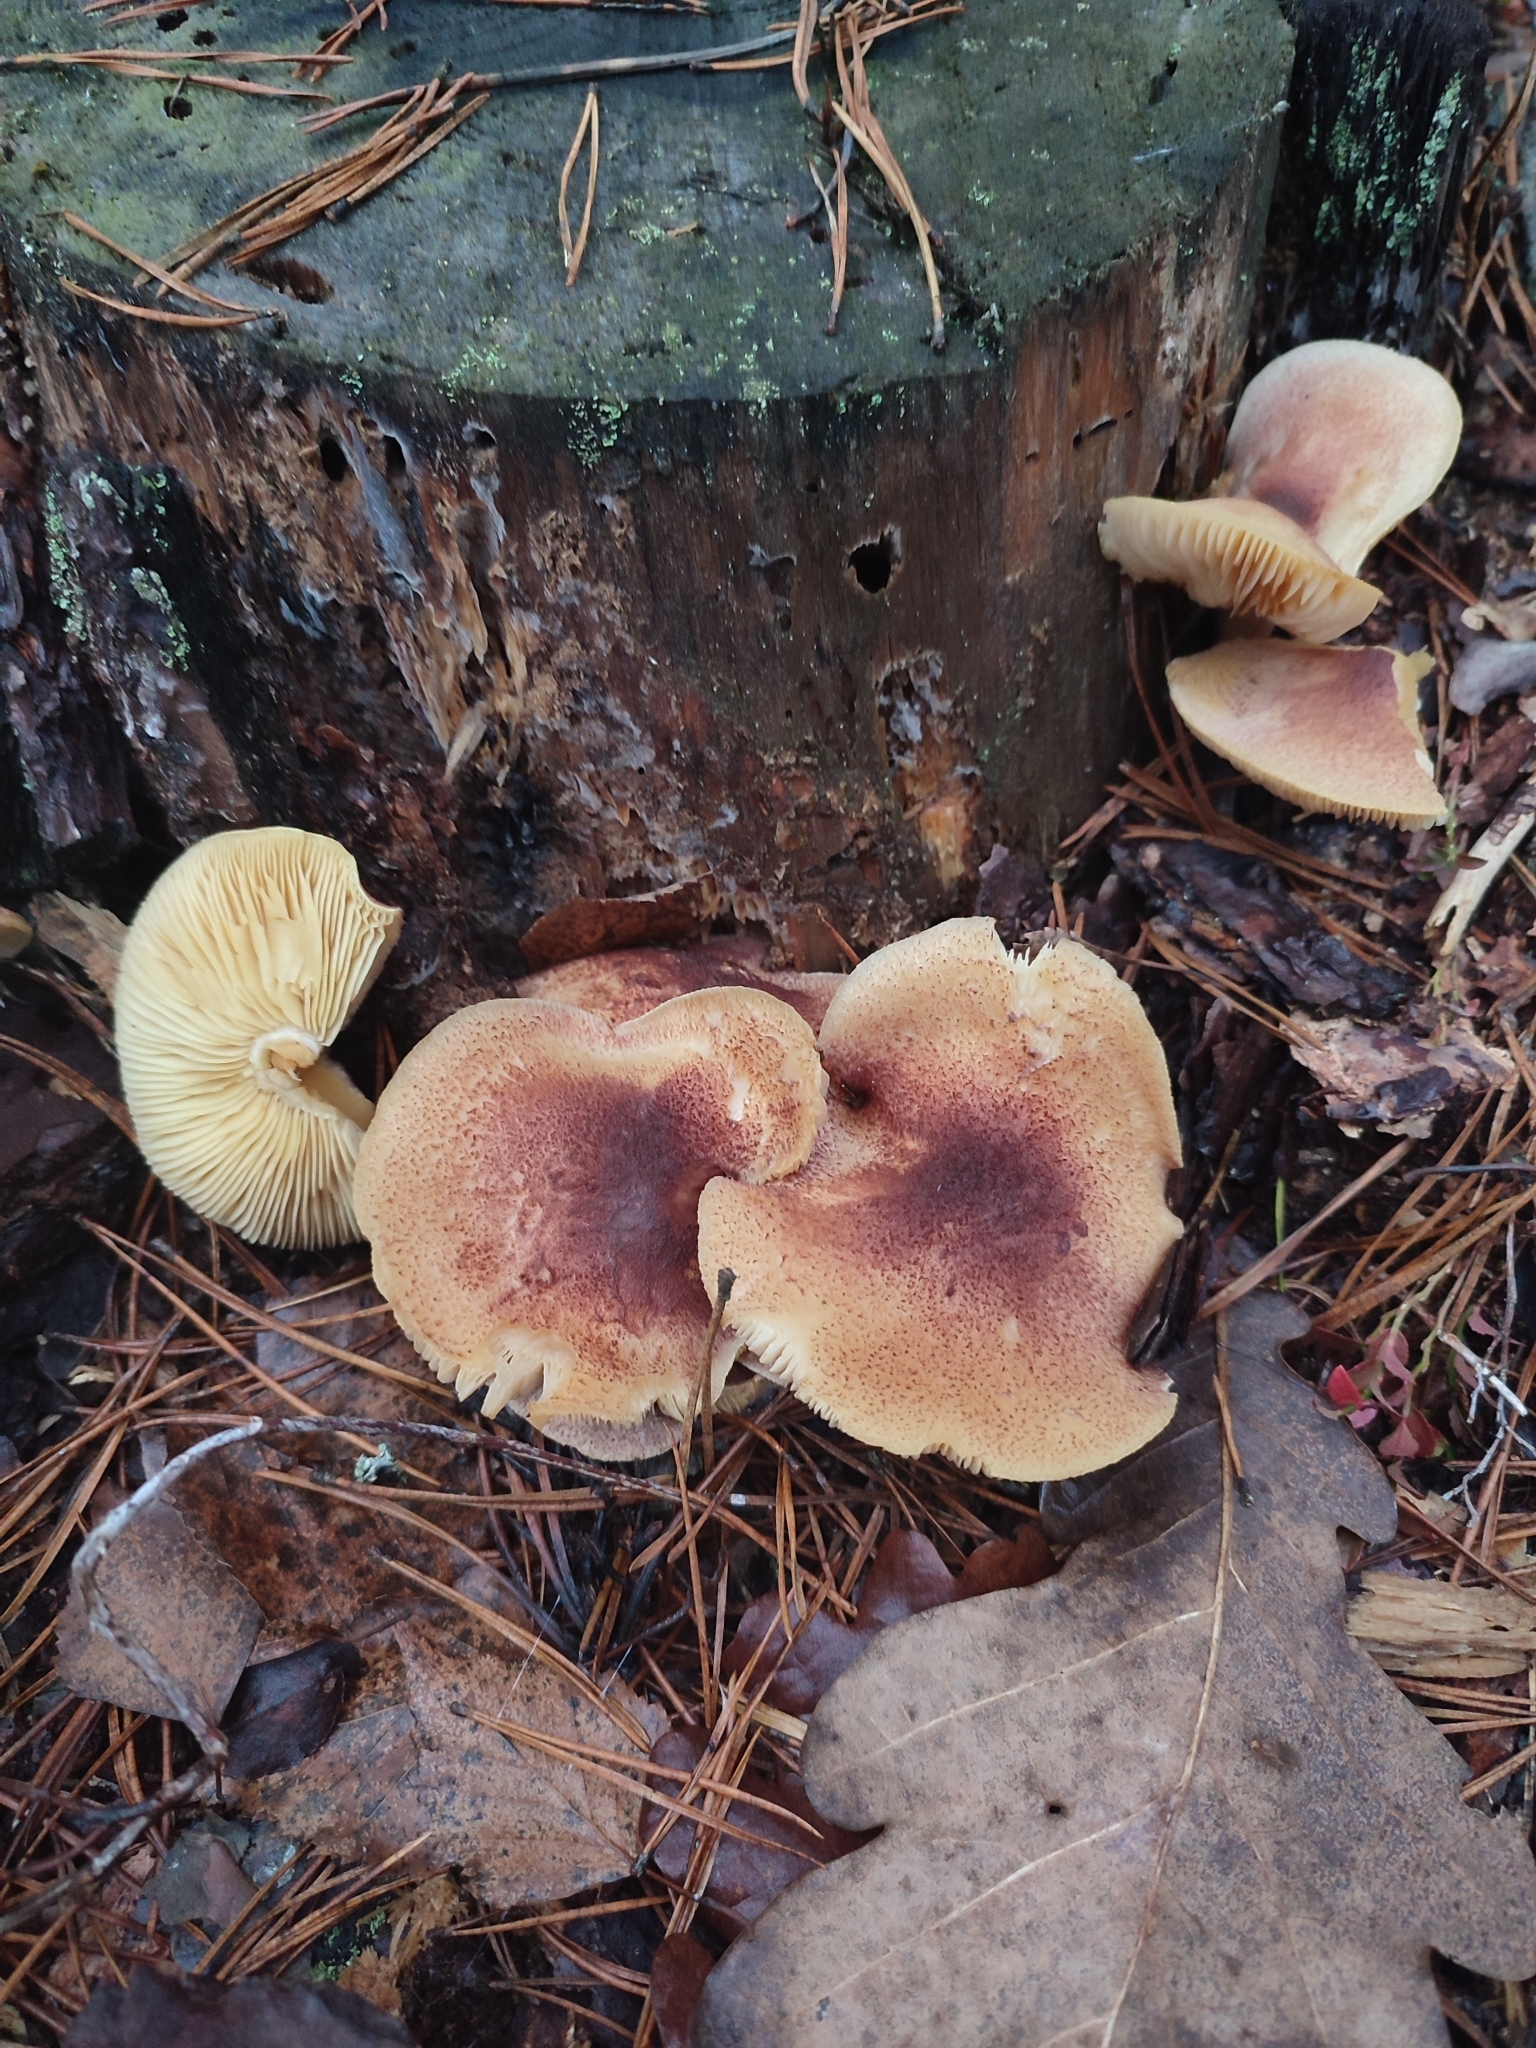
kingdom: Fungi
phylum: Basidiomycota
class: Agaricomycetes
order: Agaricales
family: Tricholomataceae
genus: Tricholomopsis
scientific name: Tricholomopsis rutilans
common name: Plums and custard
